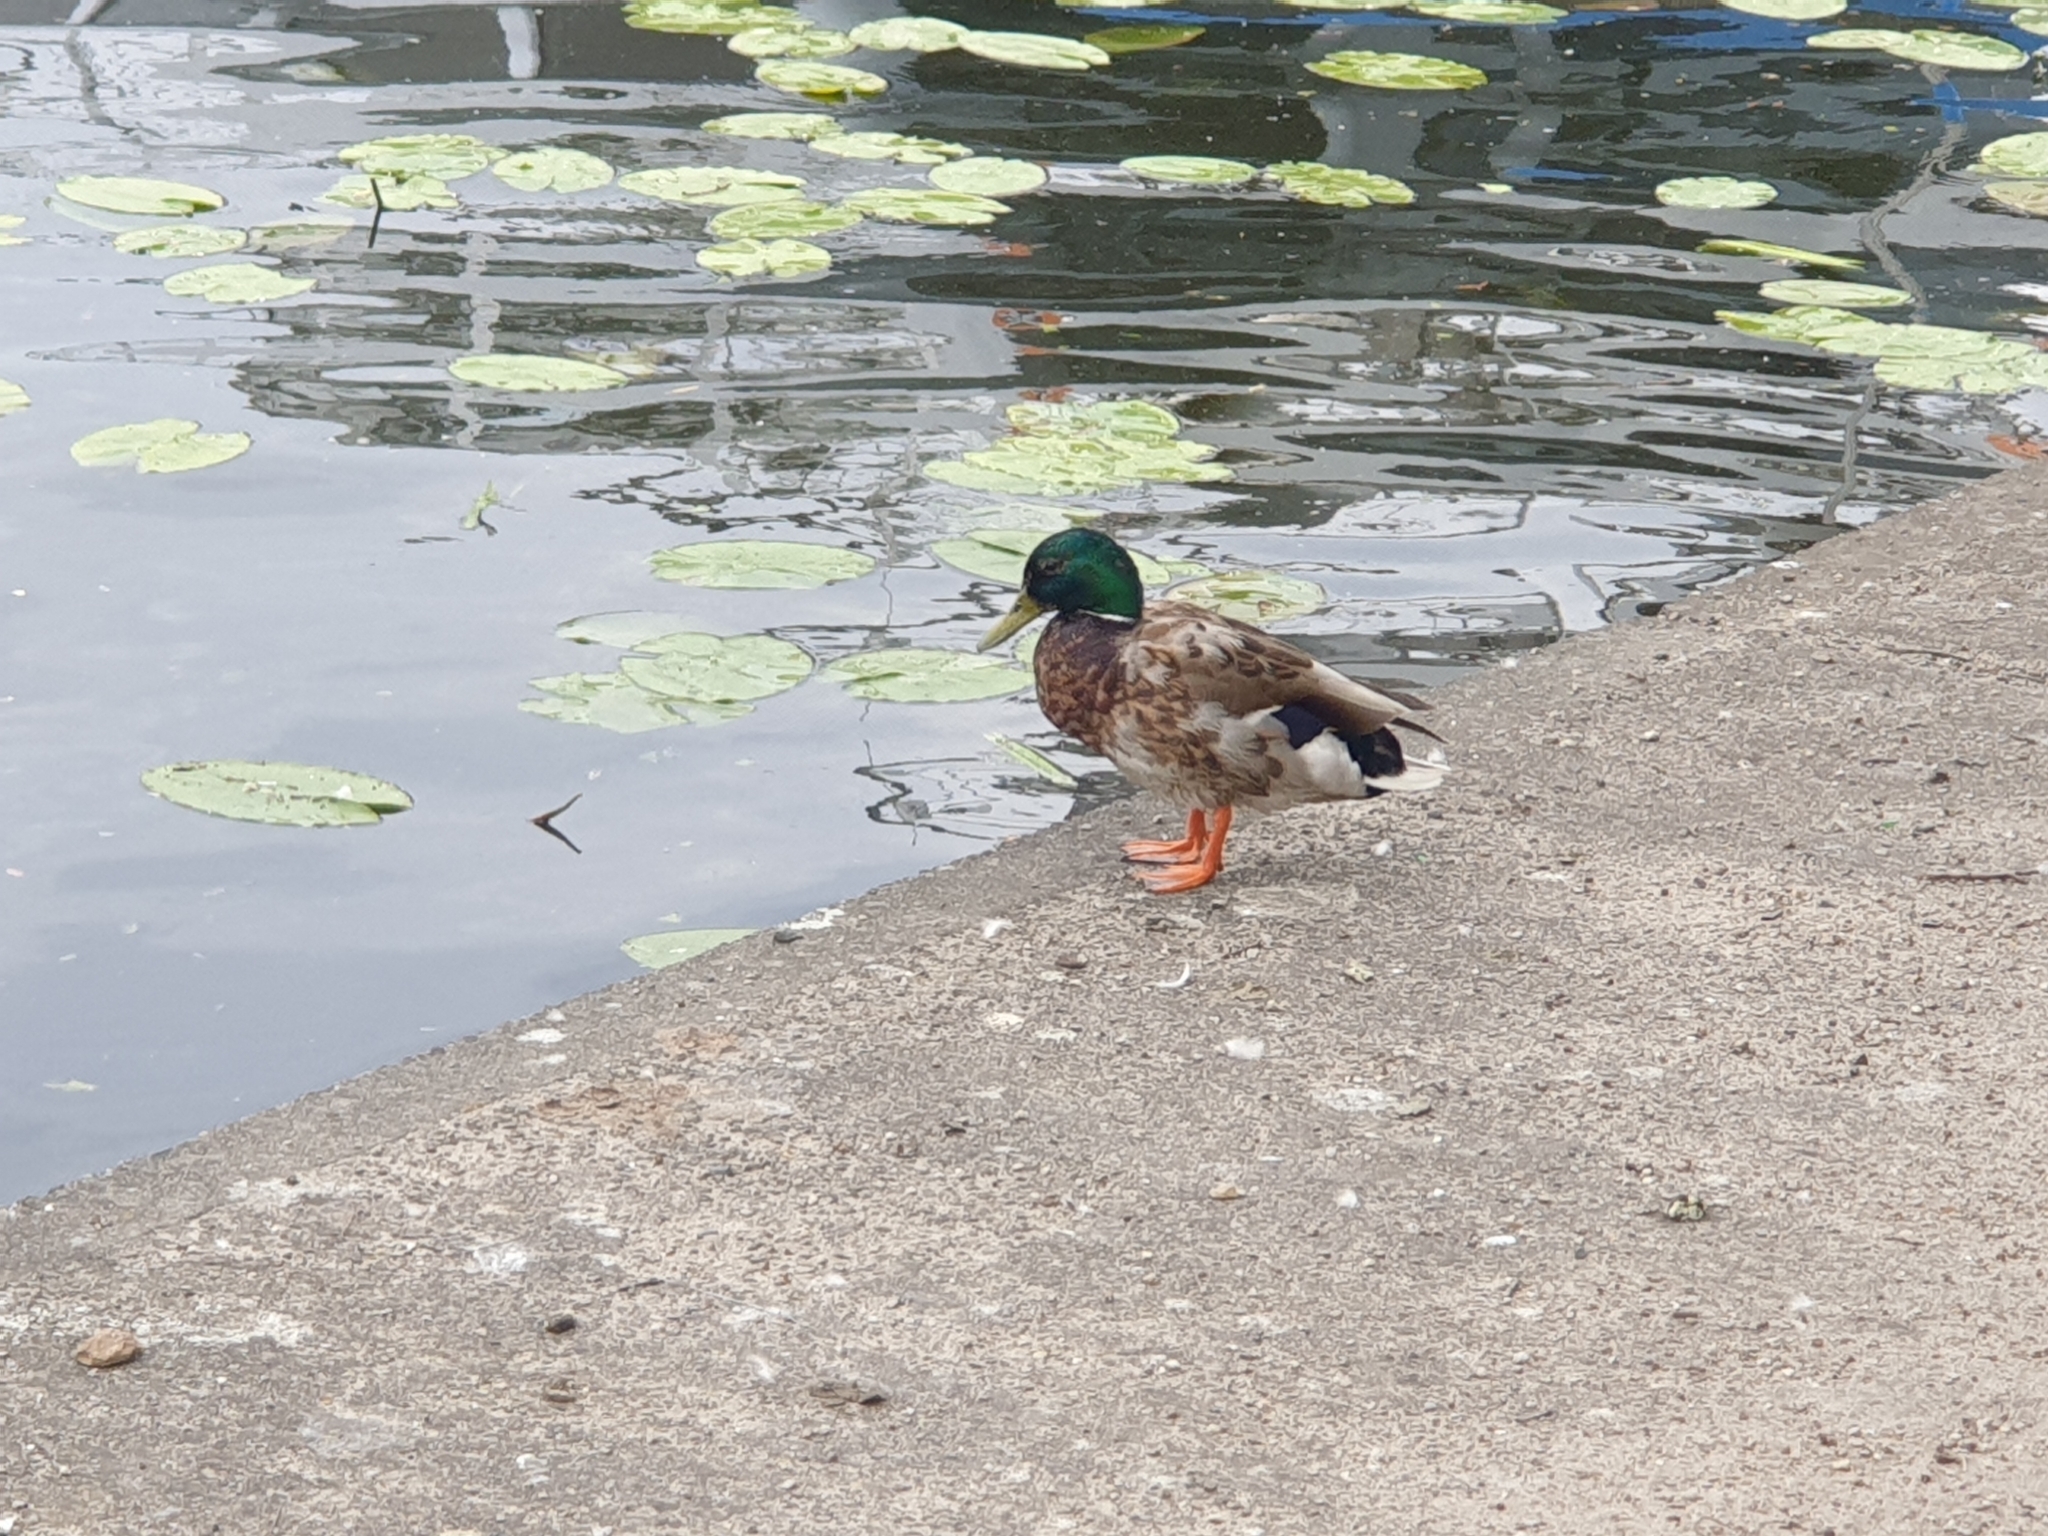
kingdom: Animalia
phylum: Chordata
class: Aves
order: Anseriformes
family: Anatidae
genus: Anas
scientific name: Anas platyrhynchos
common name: Mallard
